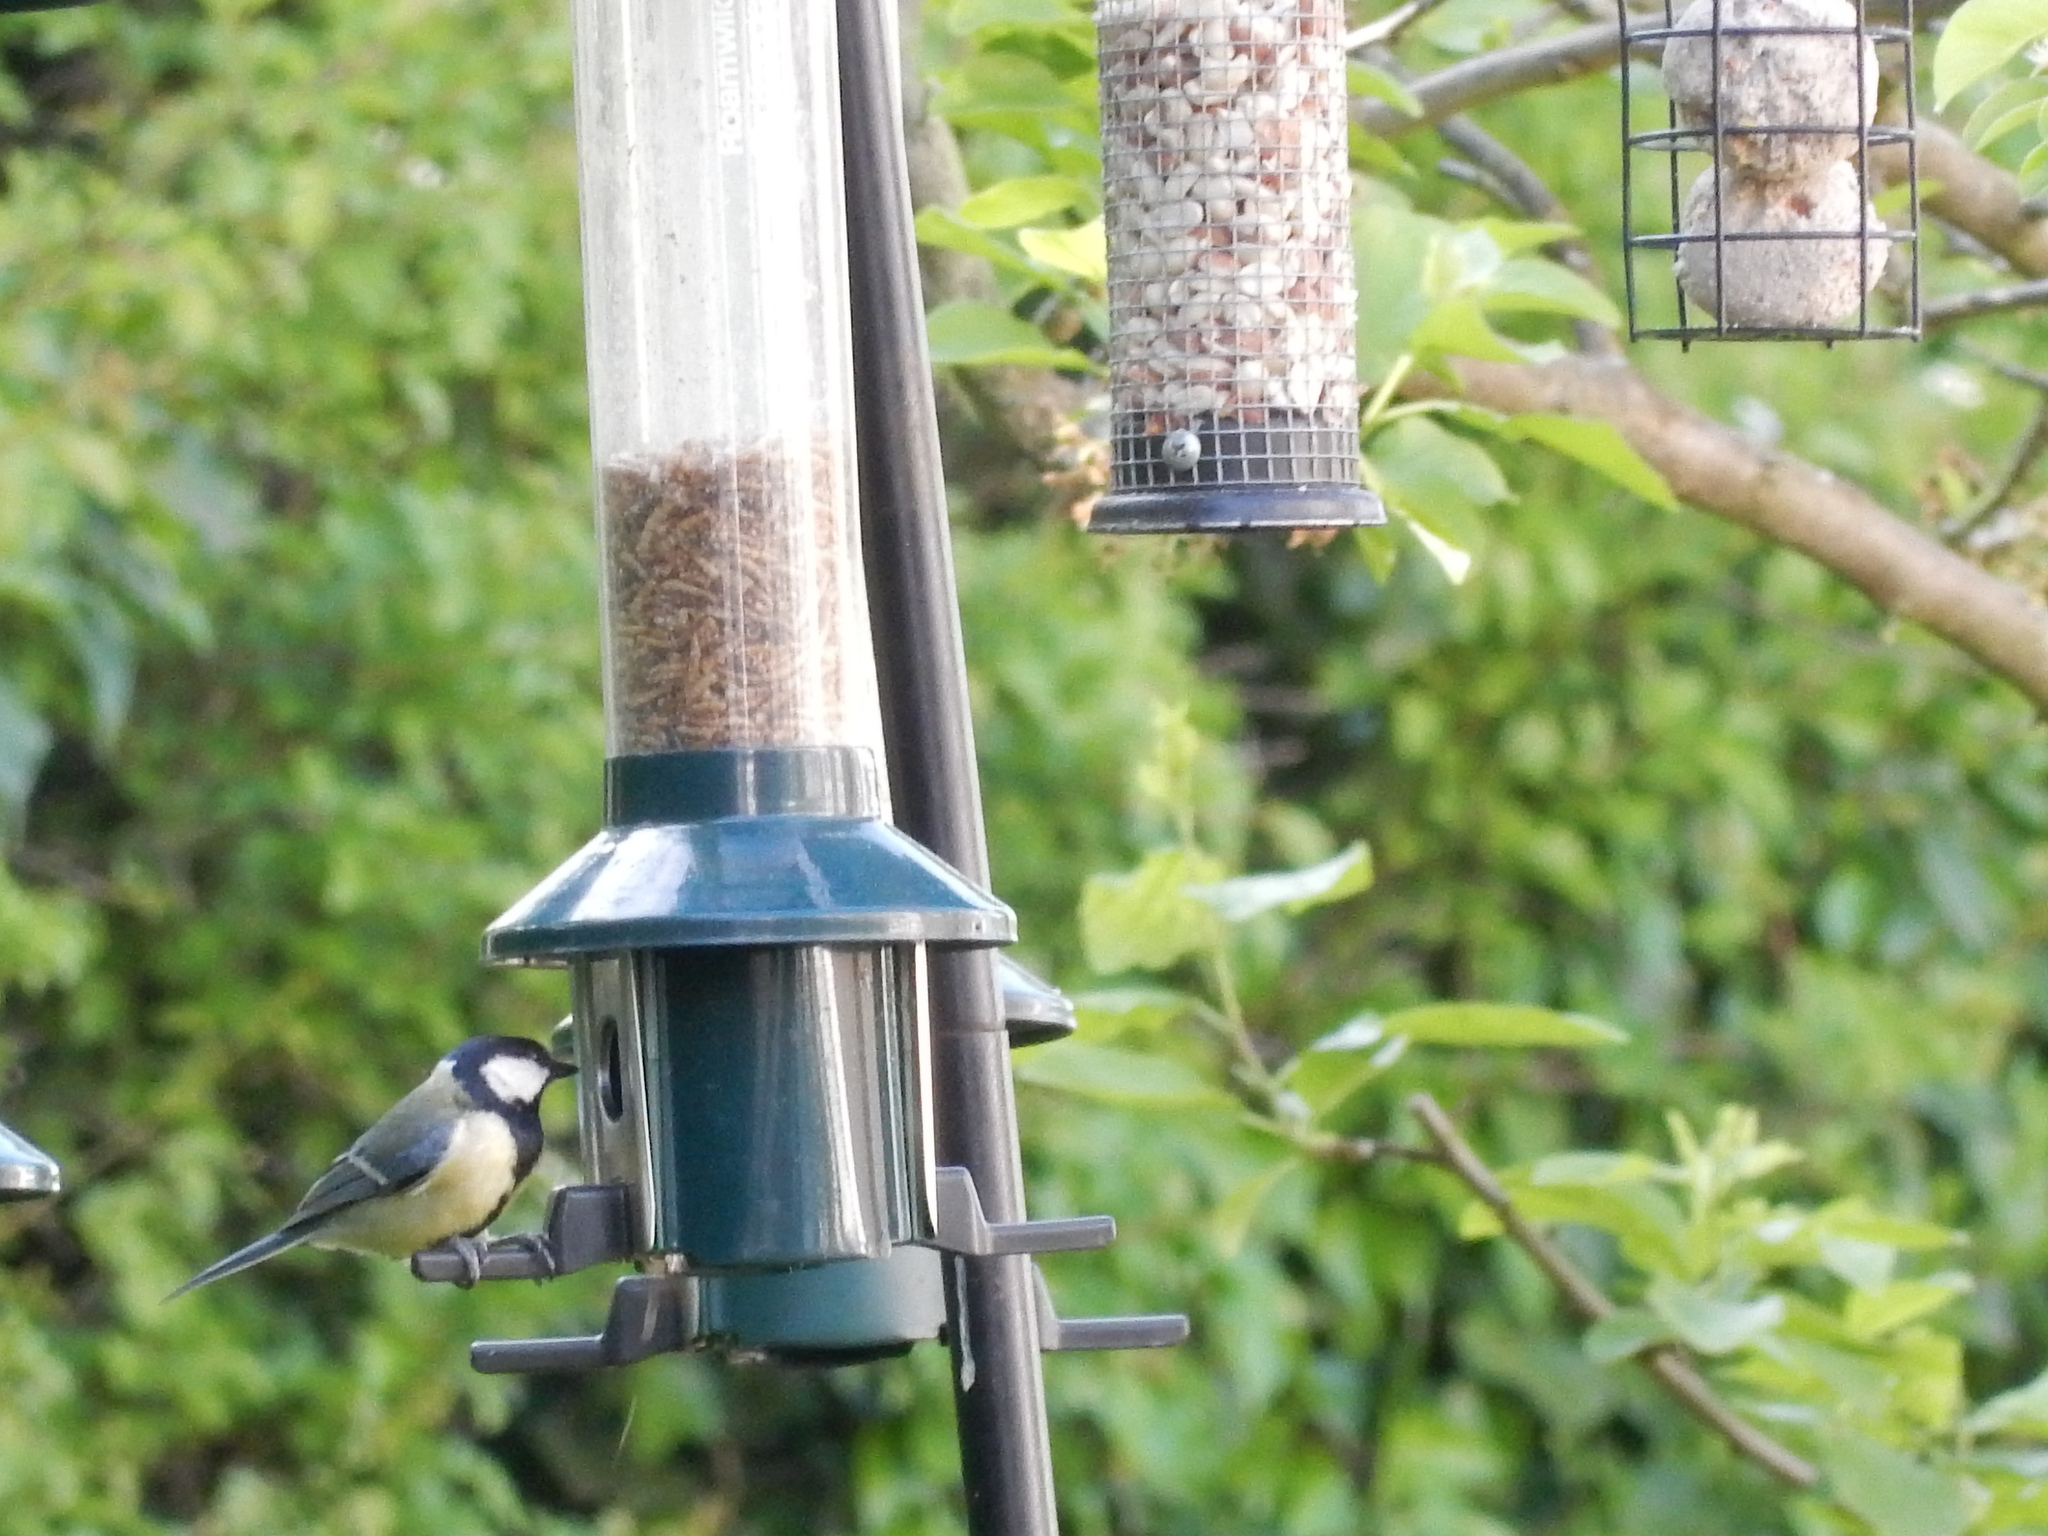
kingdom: Animalia
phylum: Chordata
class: Aves
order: Passeriformes
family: Paridae
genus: Parus
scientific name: Parus major
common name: Great tit
